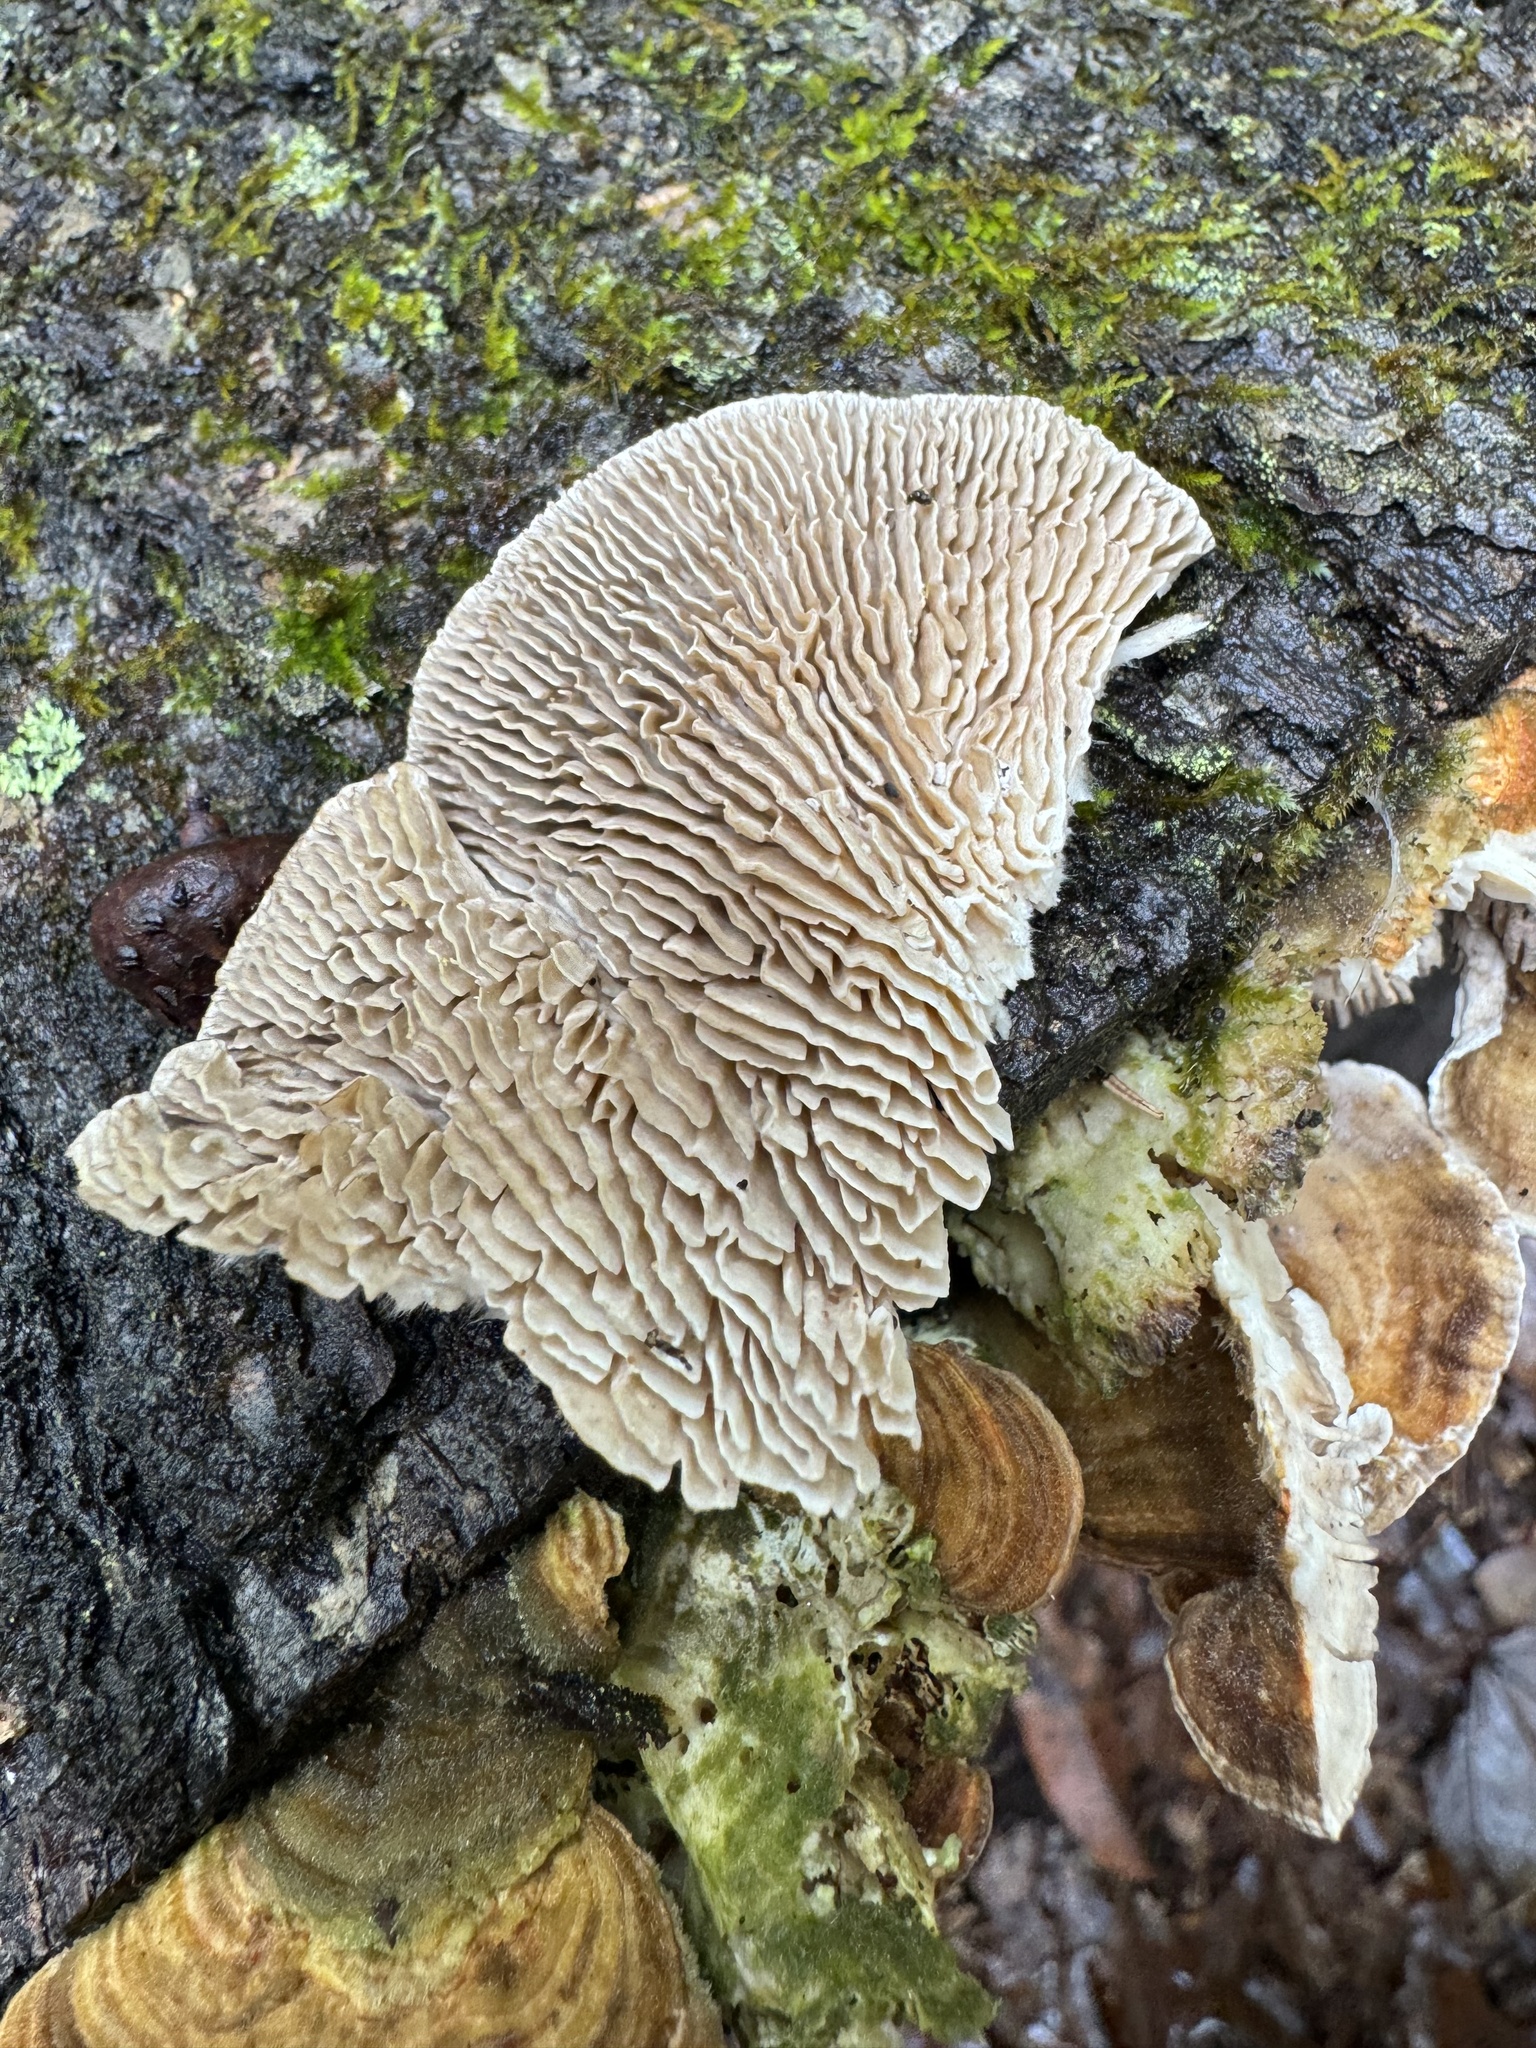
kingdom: Fungi
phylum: Basidiomycota
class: Agaricomycetes
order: Polyporales
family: Polyporaceae
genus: Lenzites
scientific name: Lenzites betulinus
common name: Birch mazegill
